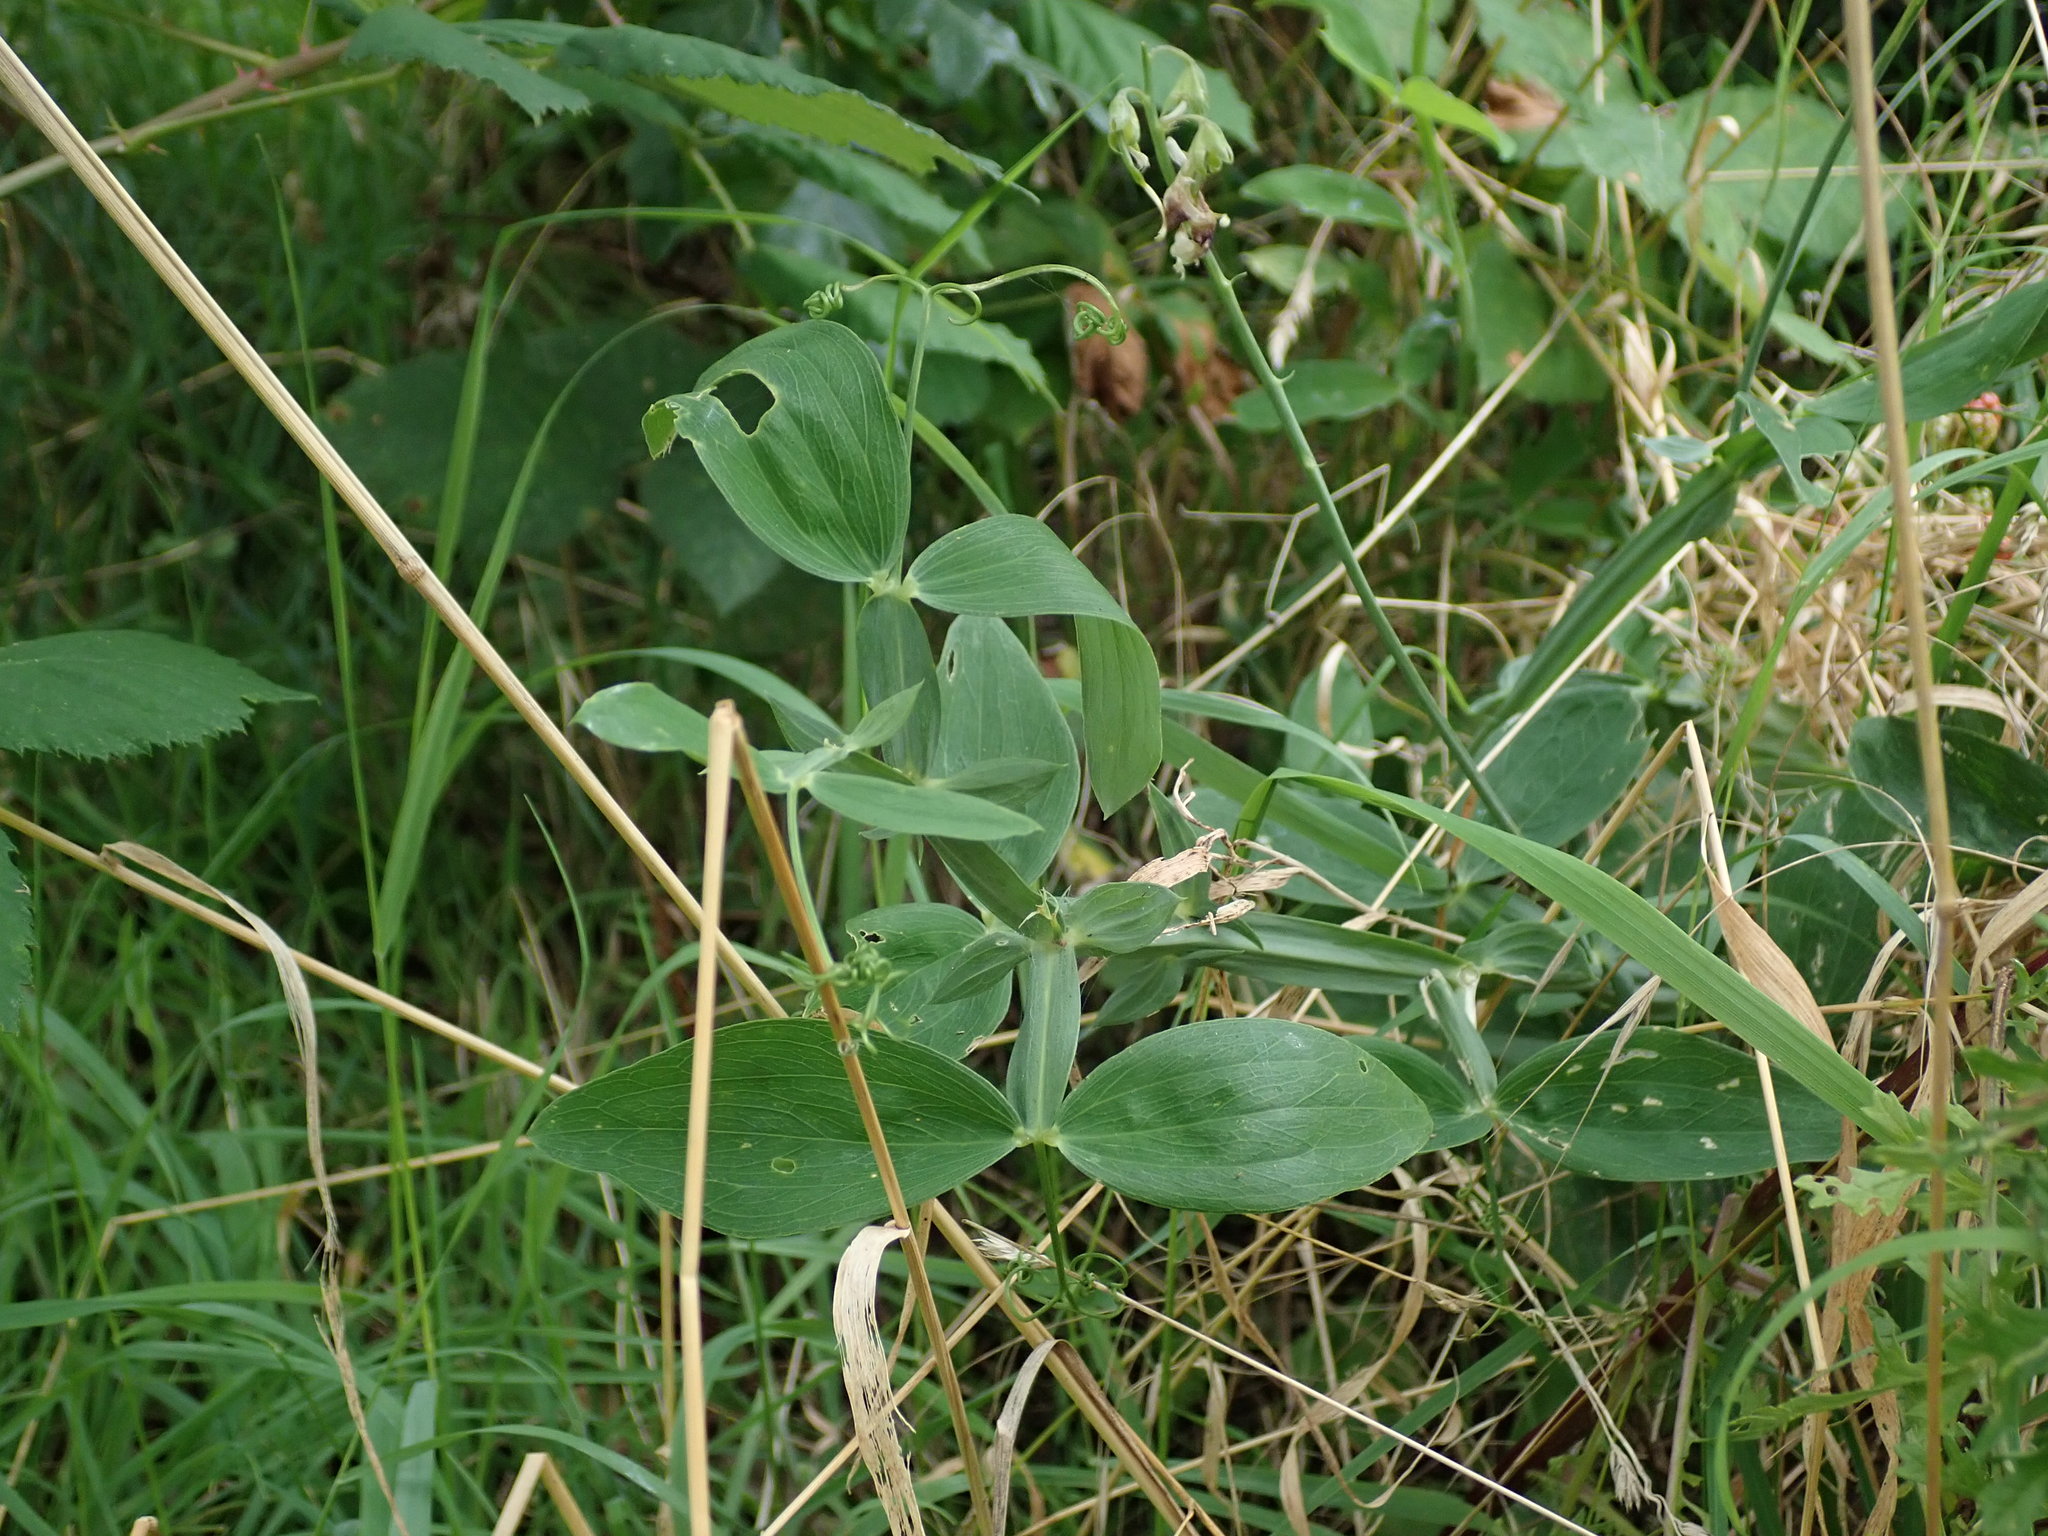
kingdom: Plantae
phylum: Tracheophyta
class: Magnoliopsida
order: Fabales
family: Fabaceae
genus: Lathyrus
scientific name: Lathyrus latifolius
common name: Perennial pea
